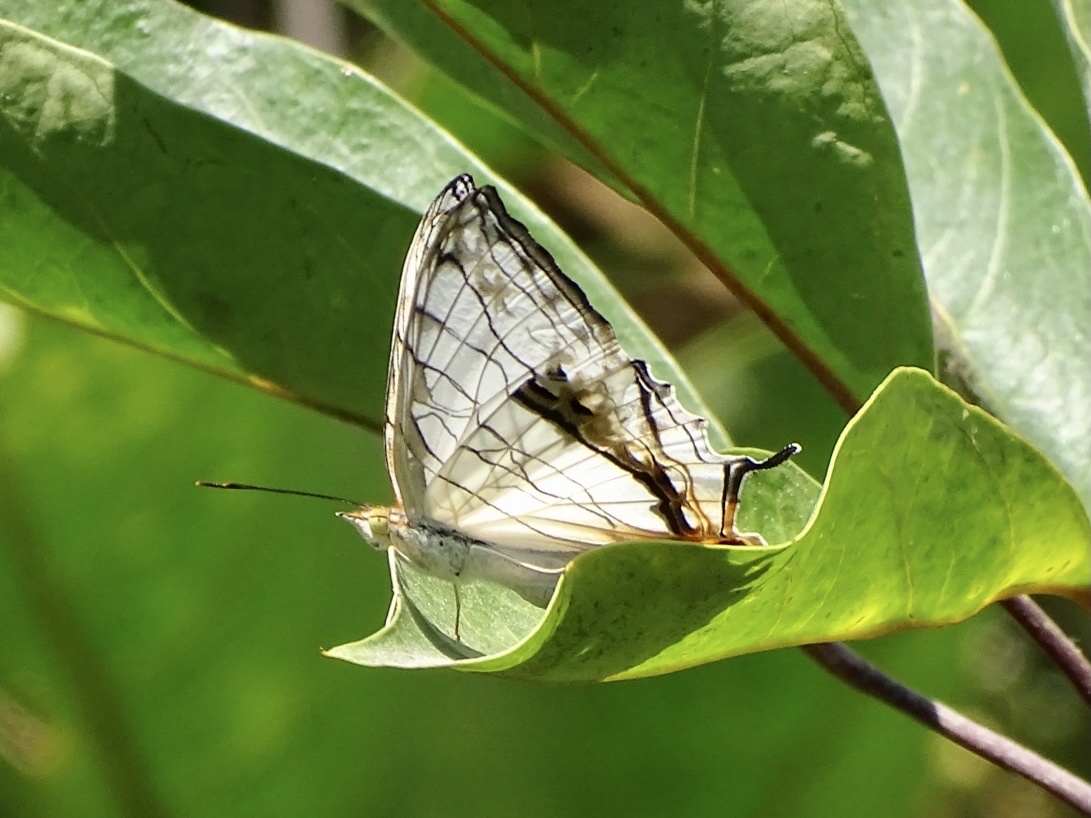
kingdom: Animalia
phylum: Arthropoda
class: Insecta
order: Lepidoptera
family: Nymphalidae
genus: Cyrestis
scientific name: Cyrestis thyodamas
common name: Common mapwing
